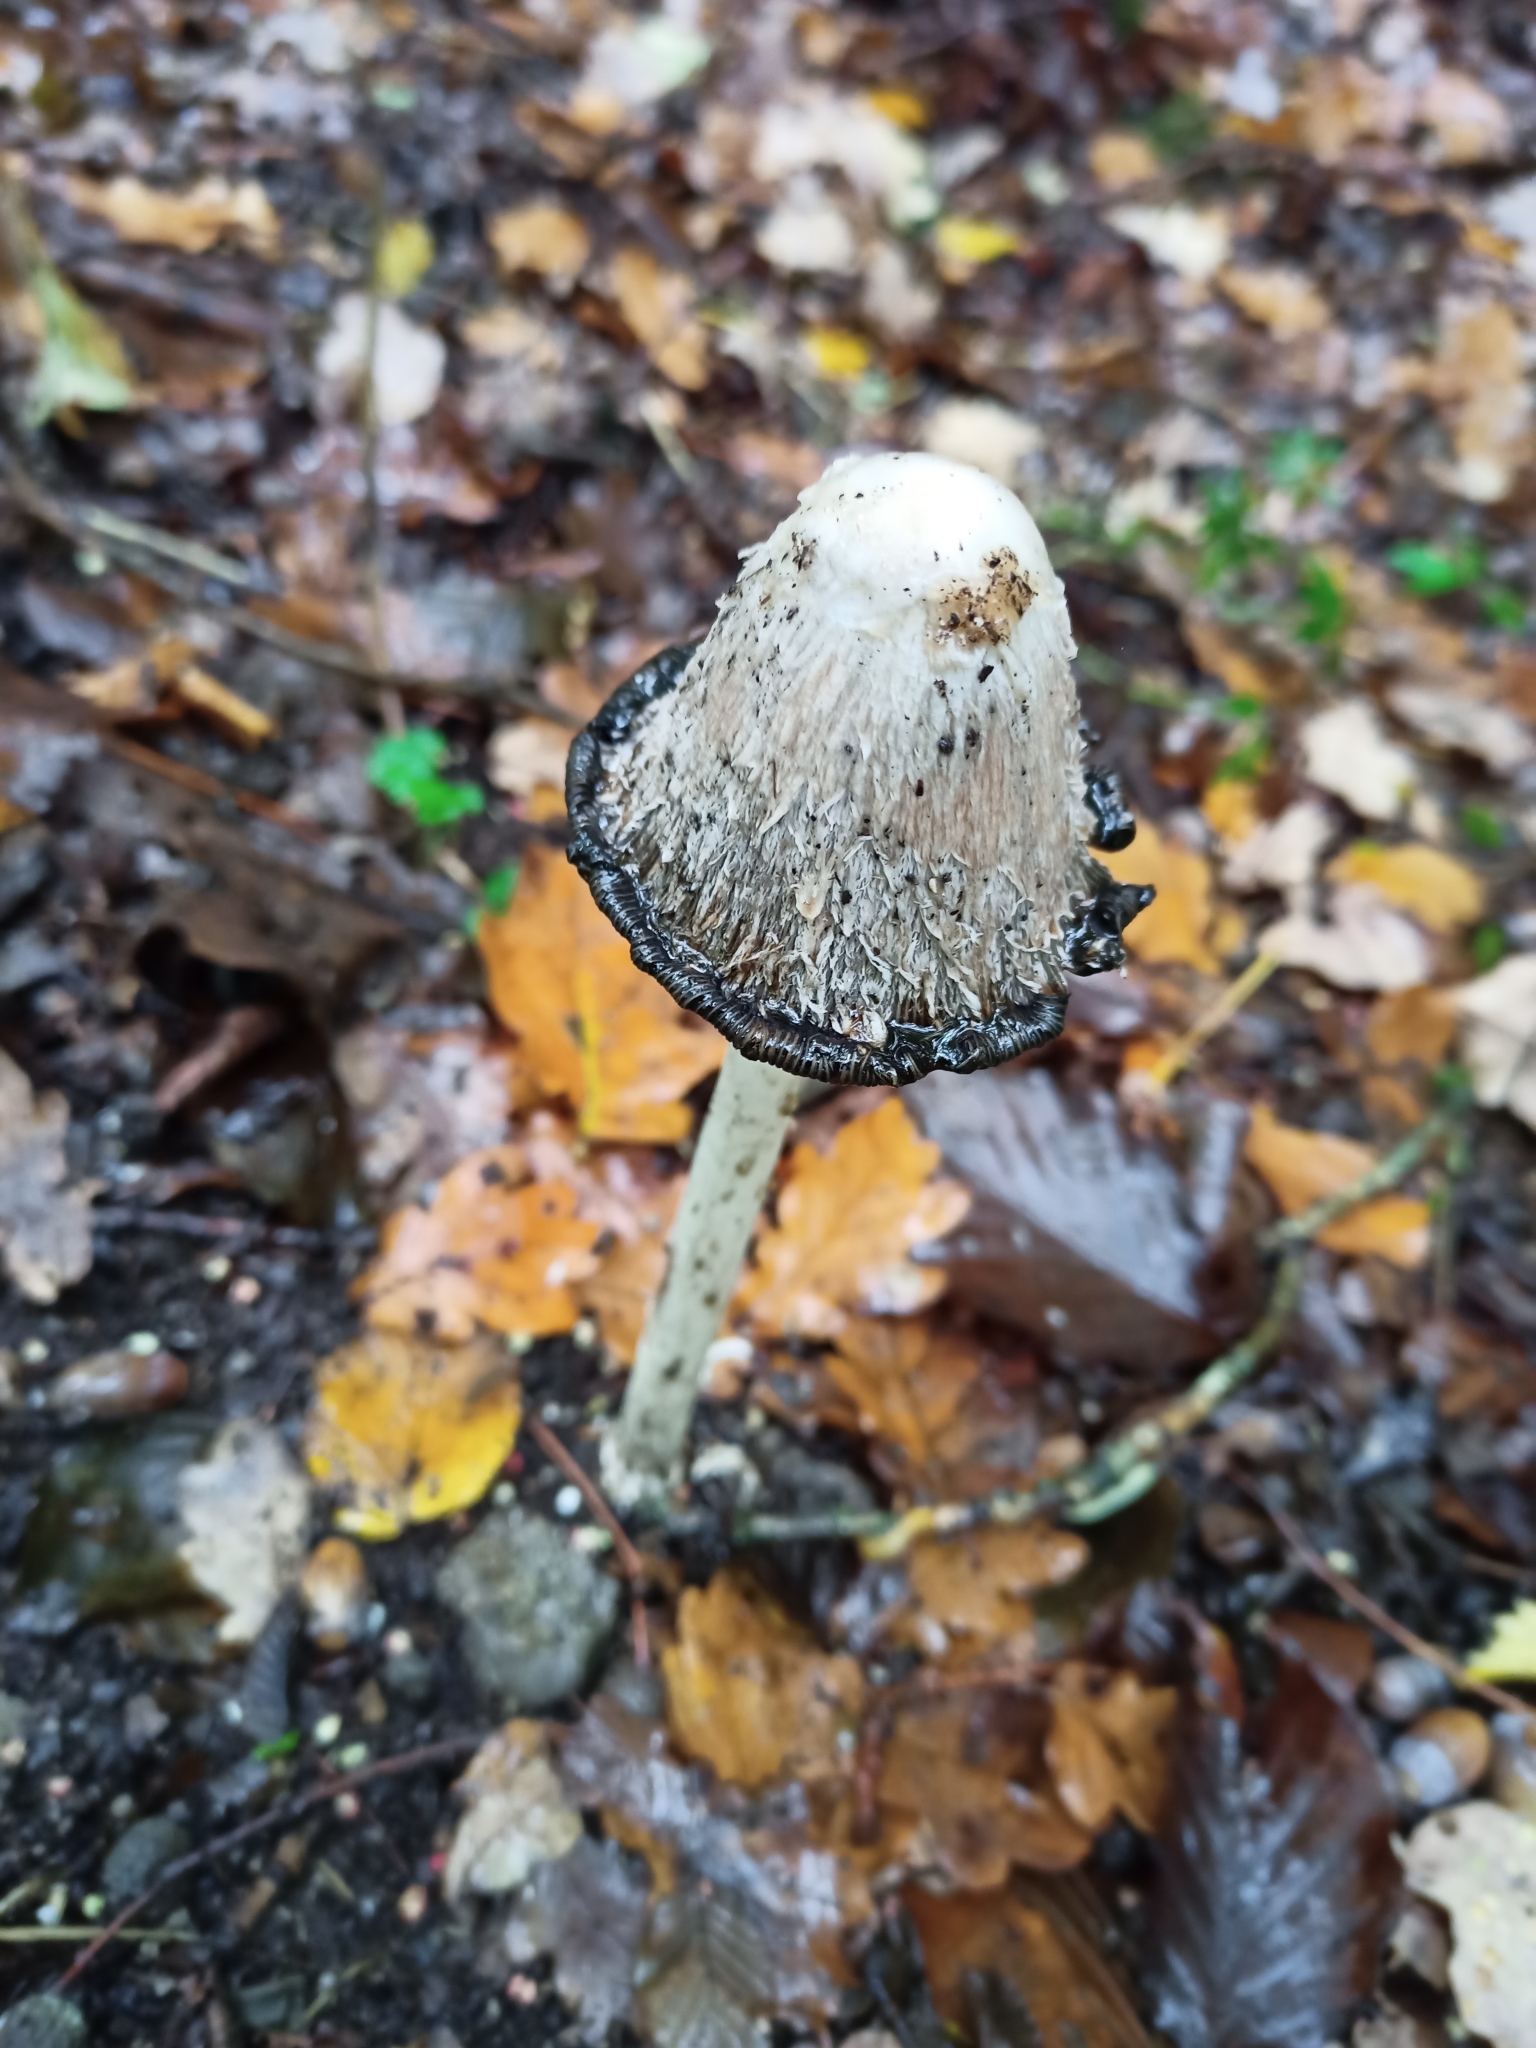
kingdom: Fungi
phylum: Basidiomycota
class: Agaricomycetes
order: Agaricales
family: Agaricaceae
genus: Coprinus
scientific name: Coprinus comatus
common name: Lawyer's wig
